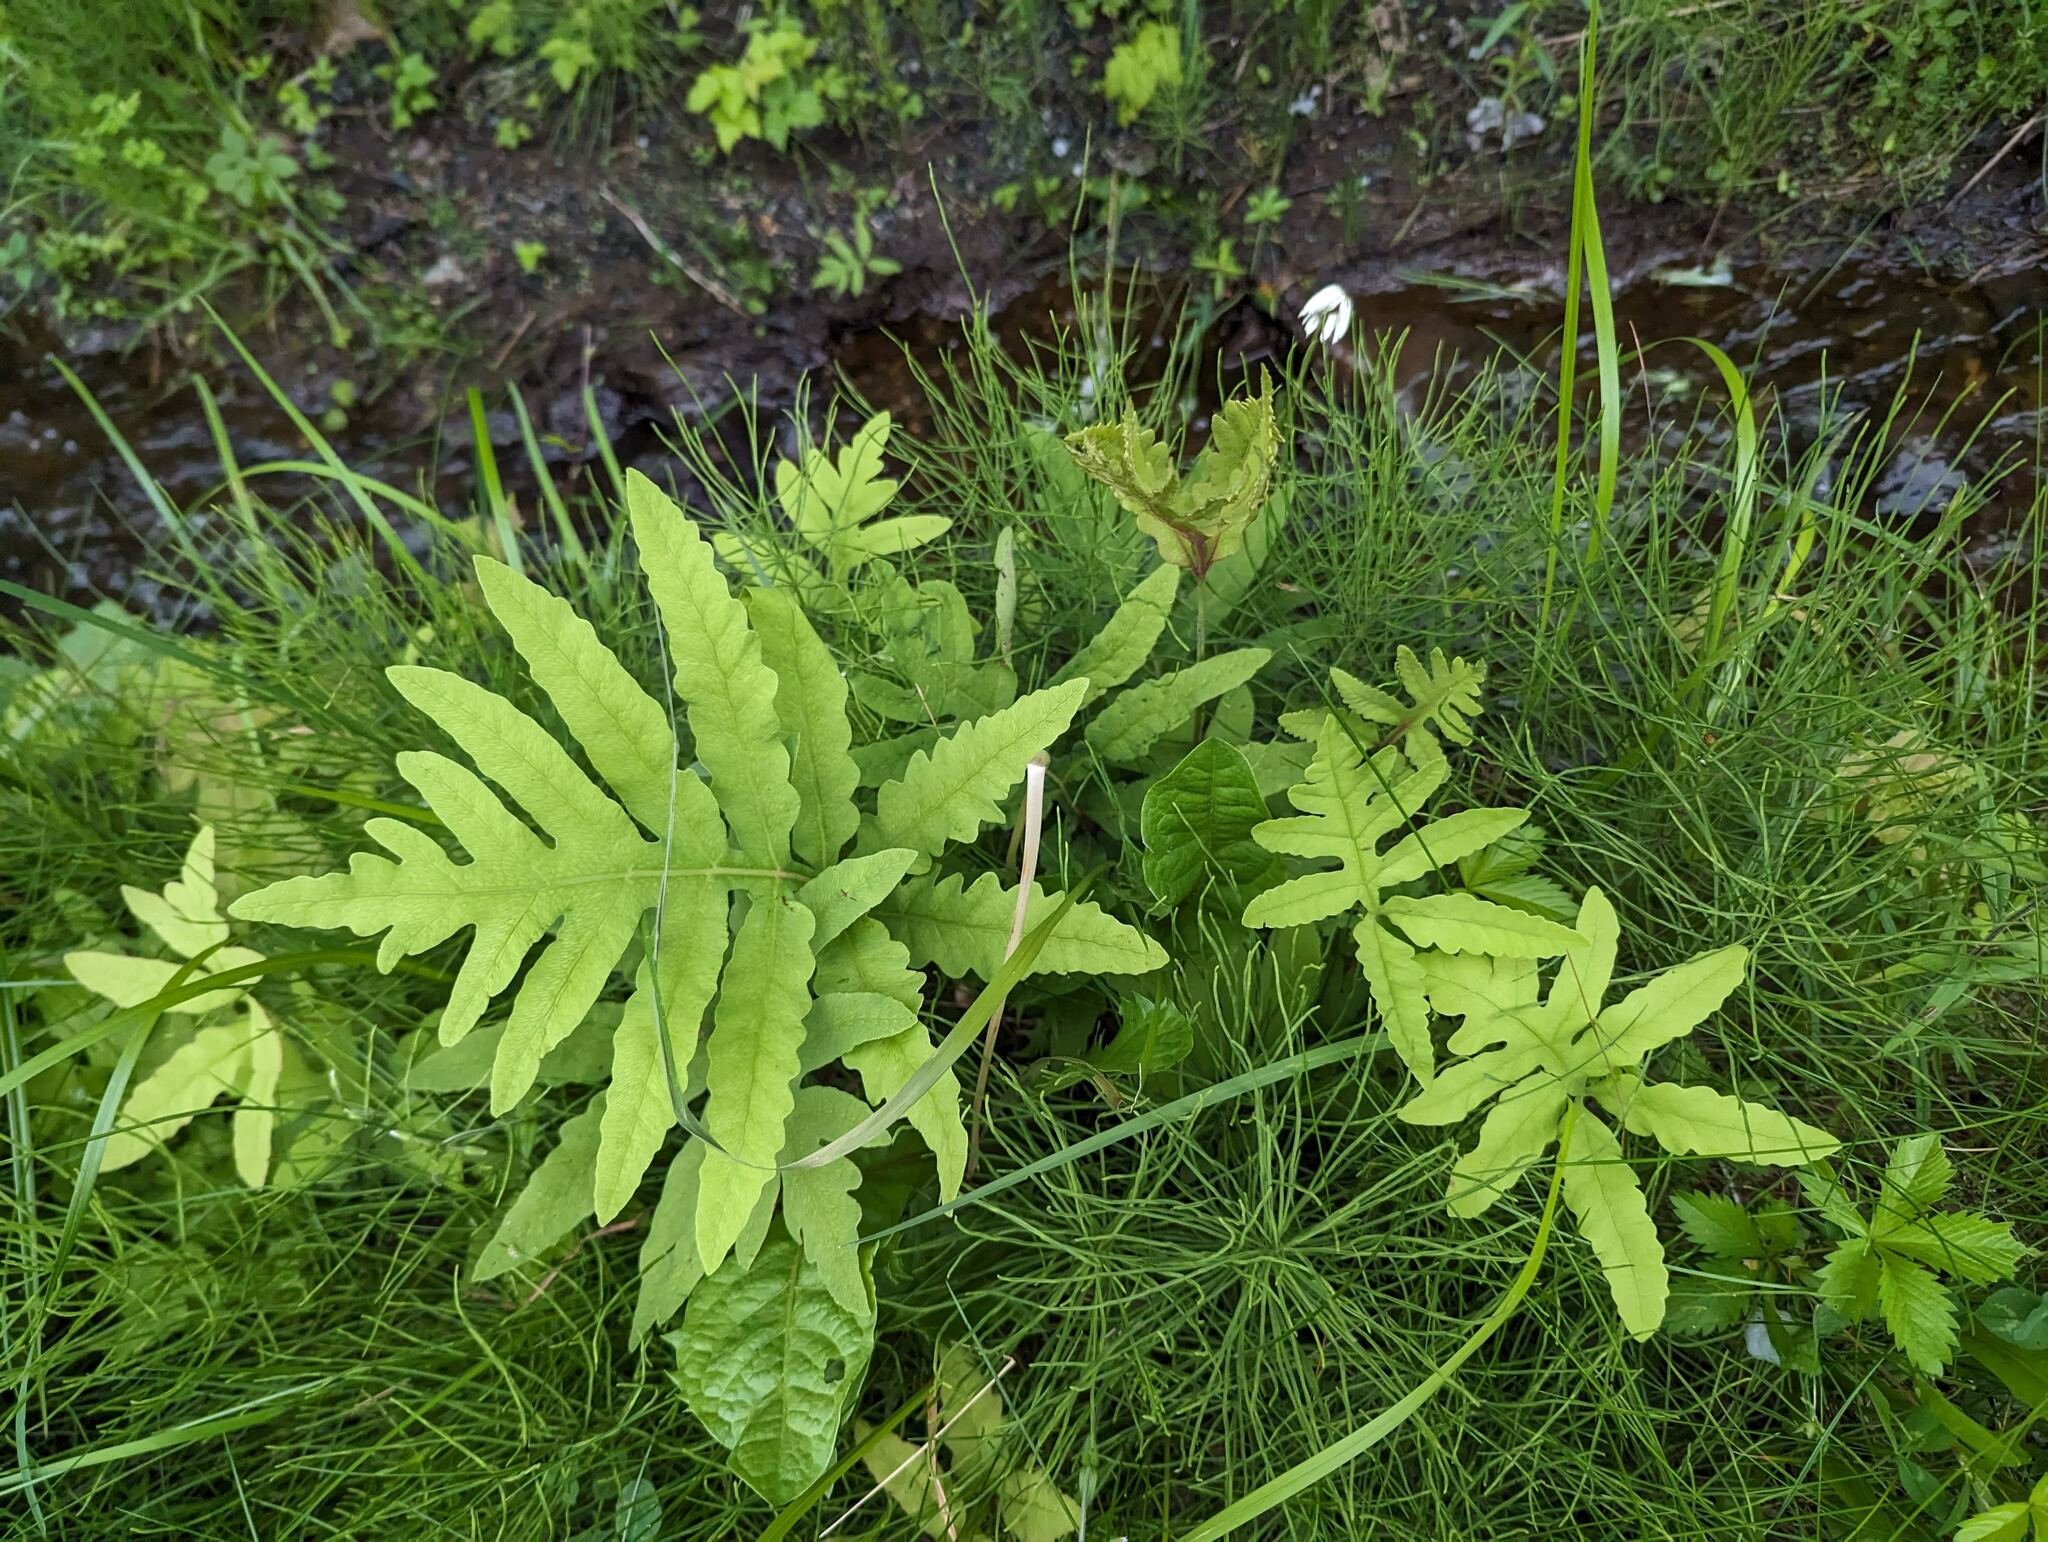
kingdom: Plantae
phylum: Tracheophyta
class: Polypodiopsida
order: Polypodiales
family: Onocleaceae
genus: Onoclea
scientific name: Onoclea sensibilis
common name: Sensitive fern
